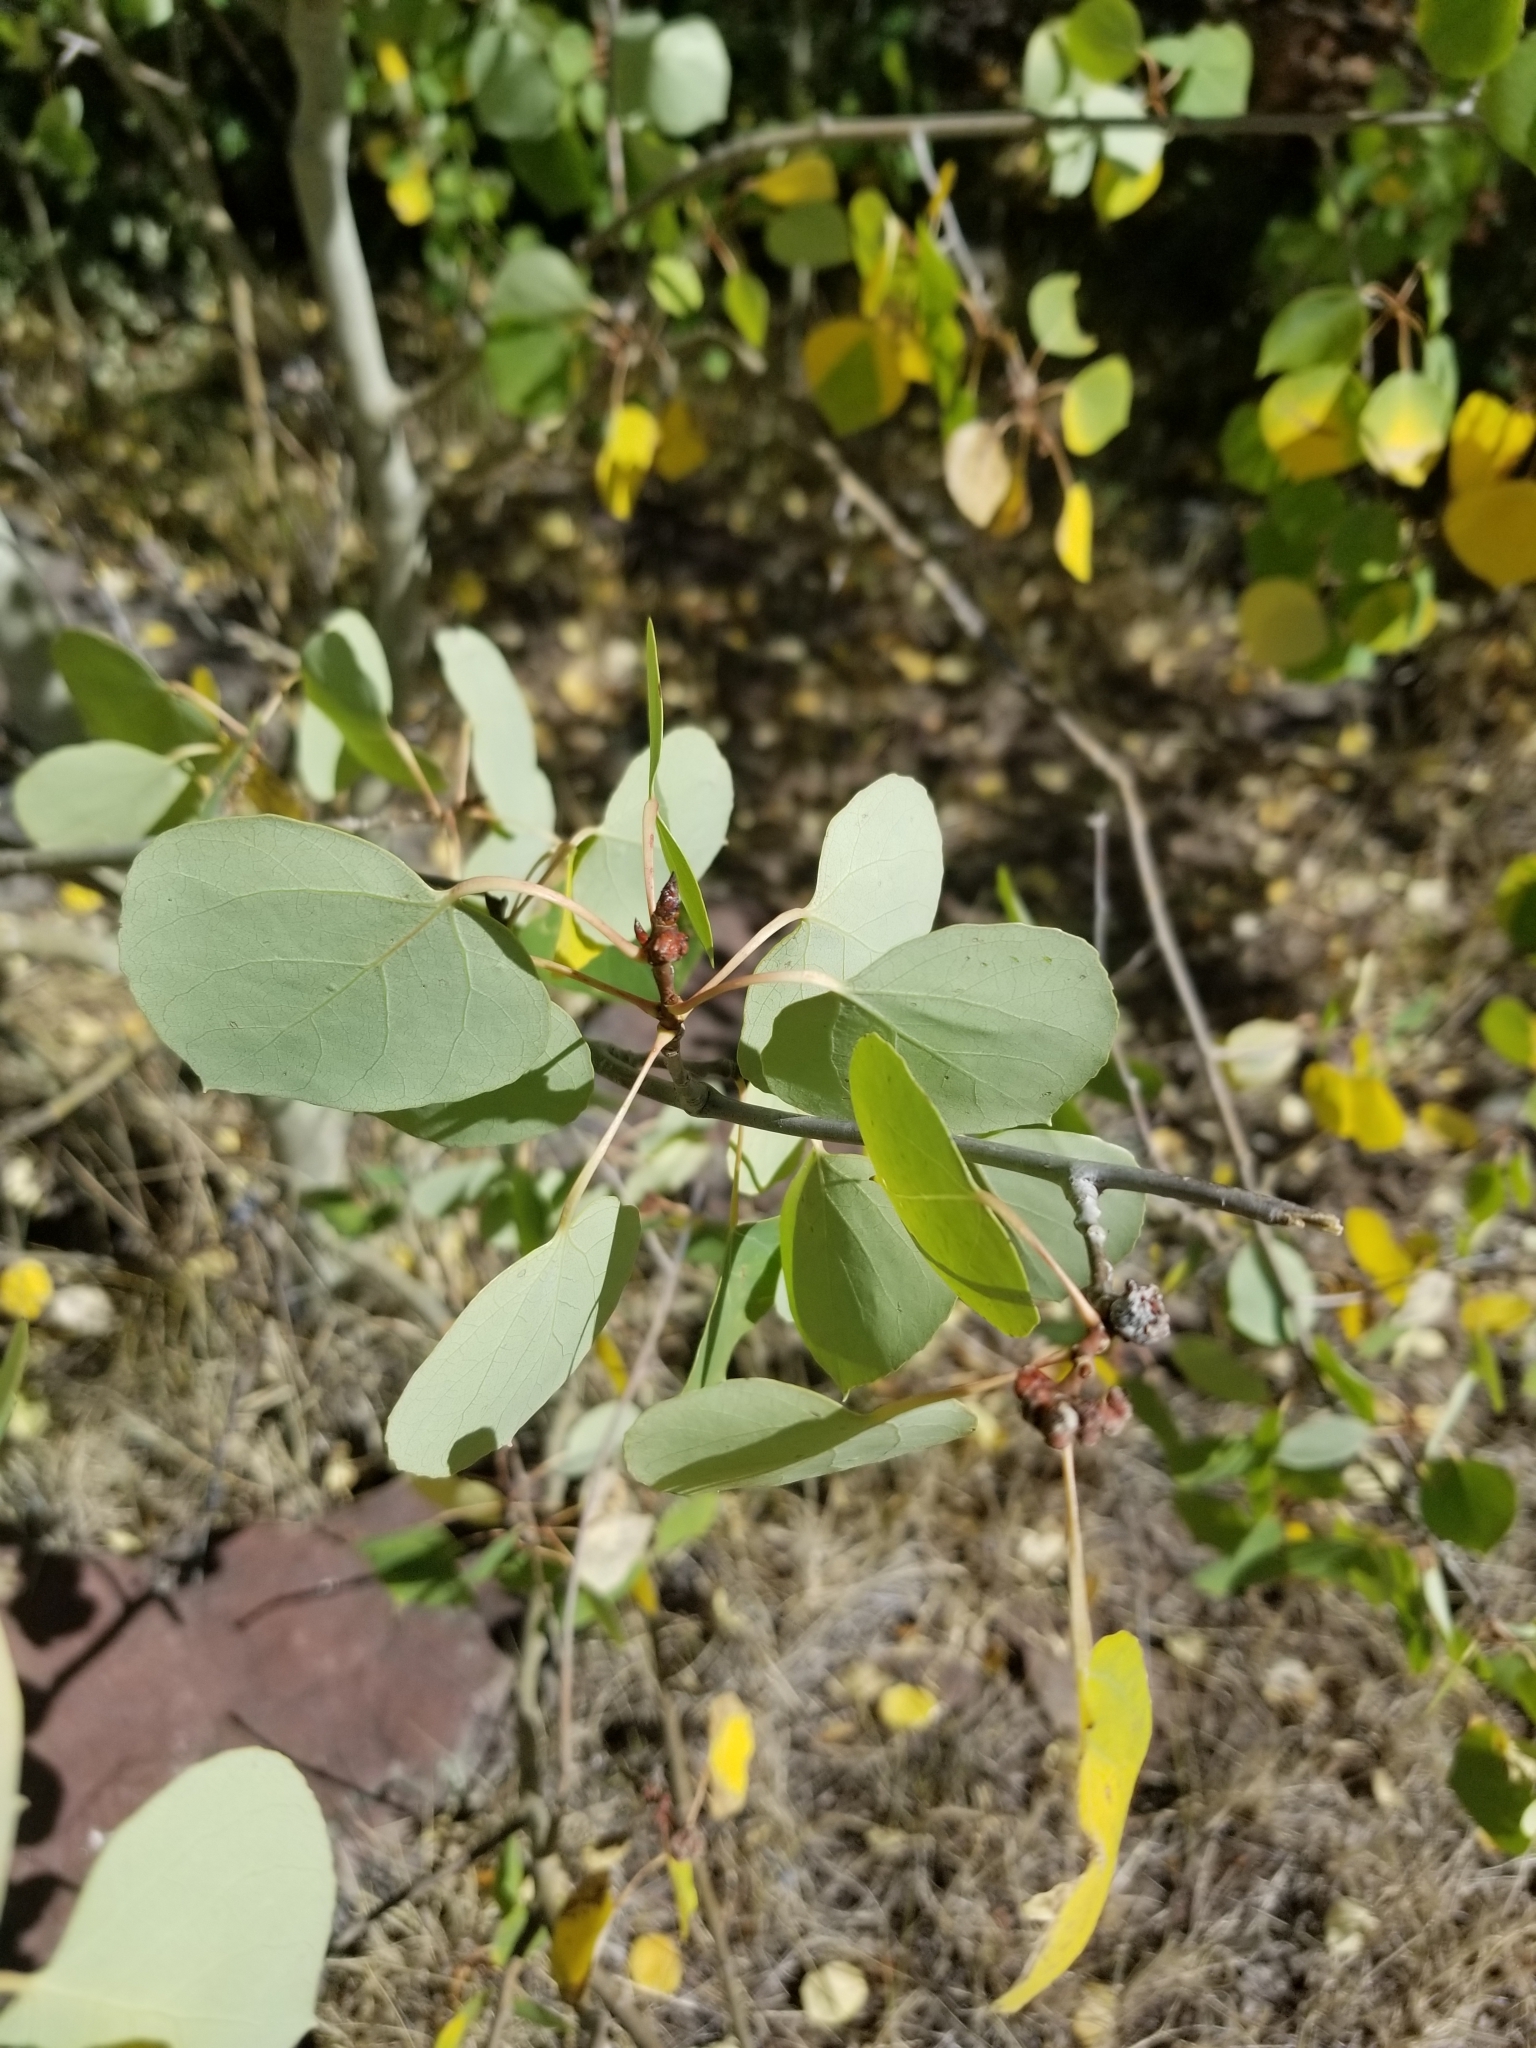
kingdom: Plantae
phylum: Tracheophyta
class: Magnoliopsida
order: Malpighiales
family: Salicaceae
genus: Populus
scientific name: Populus tremuloides
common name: Quaking aspen
